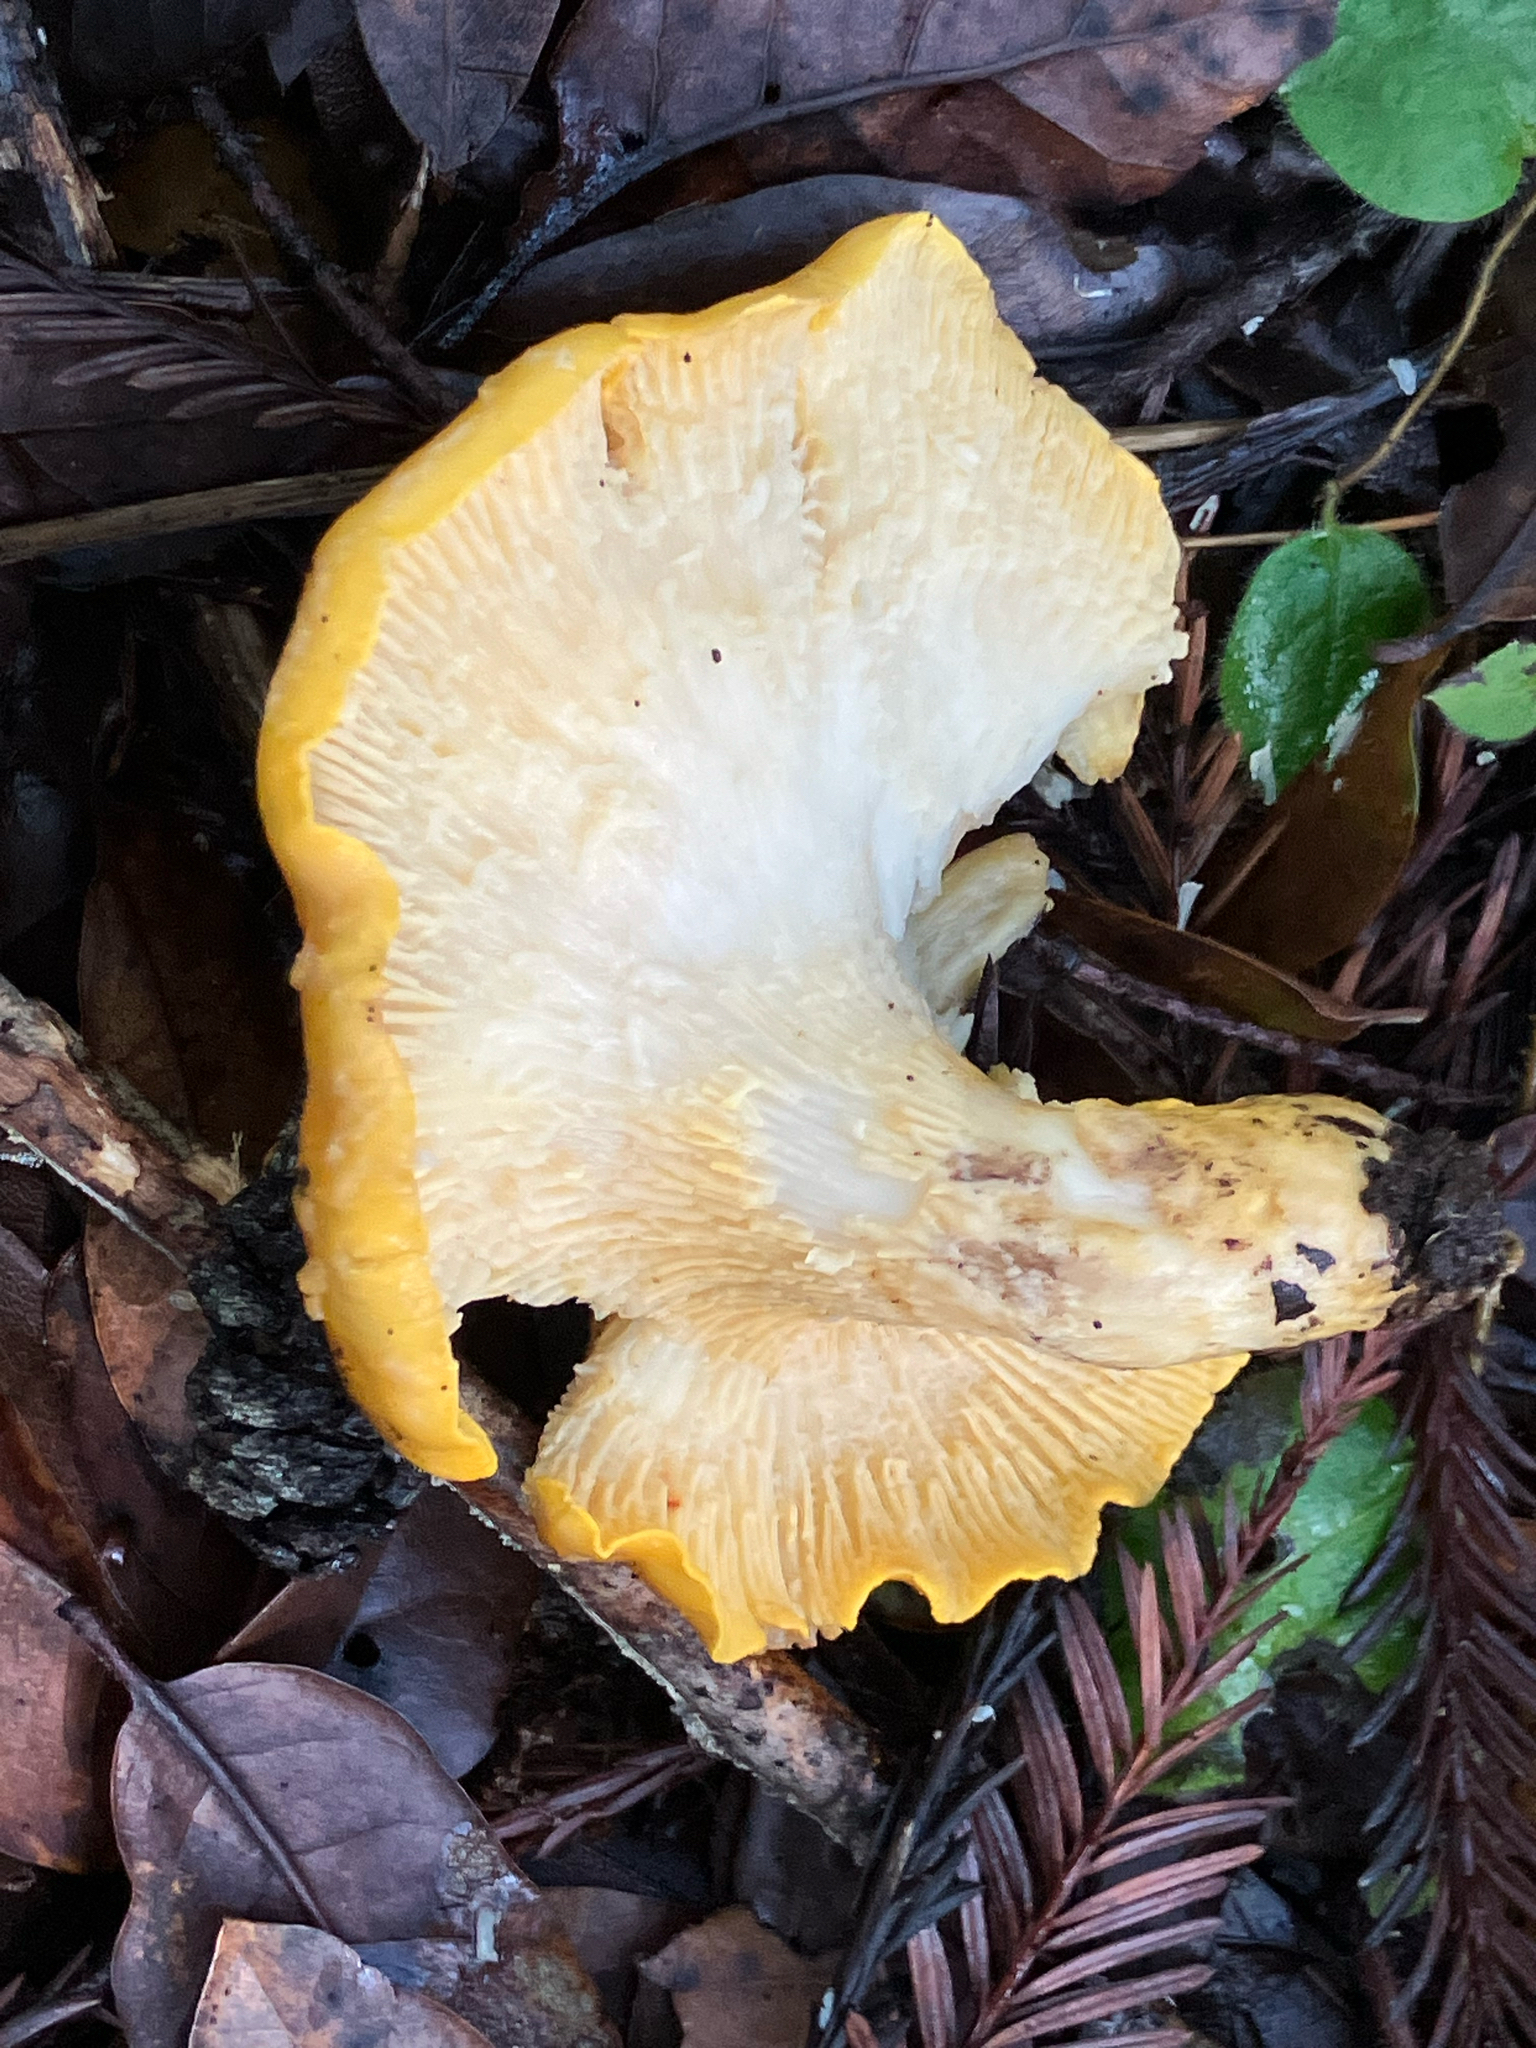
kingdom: Fungi
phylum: Basidiomycota
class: Agaricomycetes
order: Cantharellales
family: Hydnaceae
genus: Cantharellus
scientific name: Cantharellus californicus
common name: California golden chanterelle
